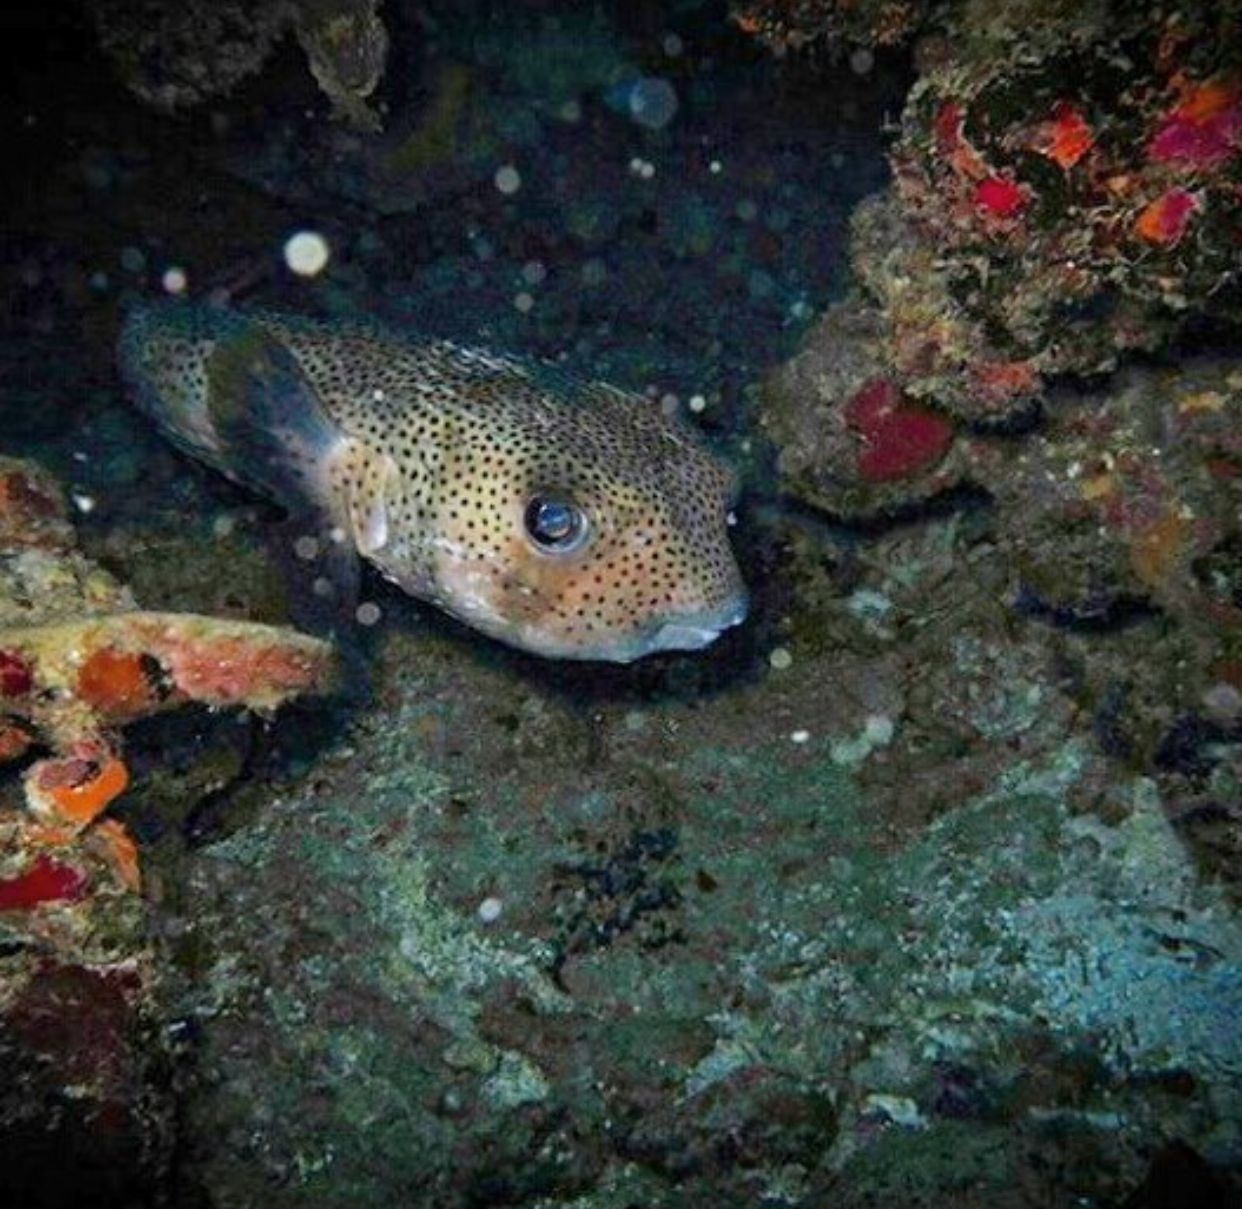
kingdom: Animalia
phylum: Chordata
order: Tetraodontiformes
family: Diodontidae
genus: Diodon
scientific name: Diodon hystrix
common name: Giant porcupinefish
